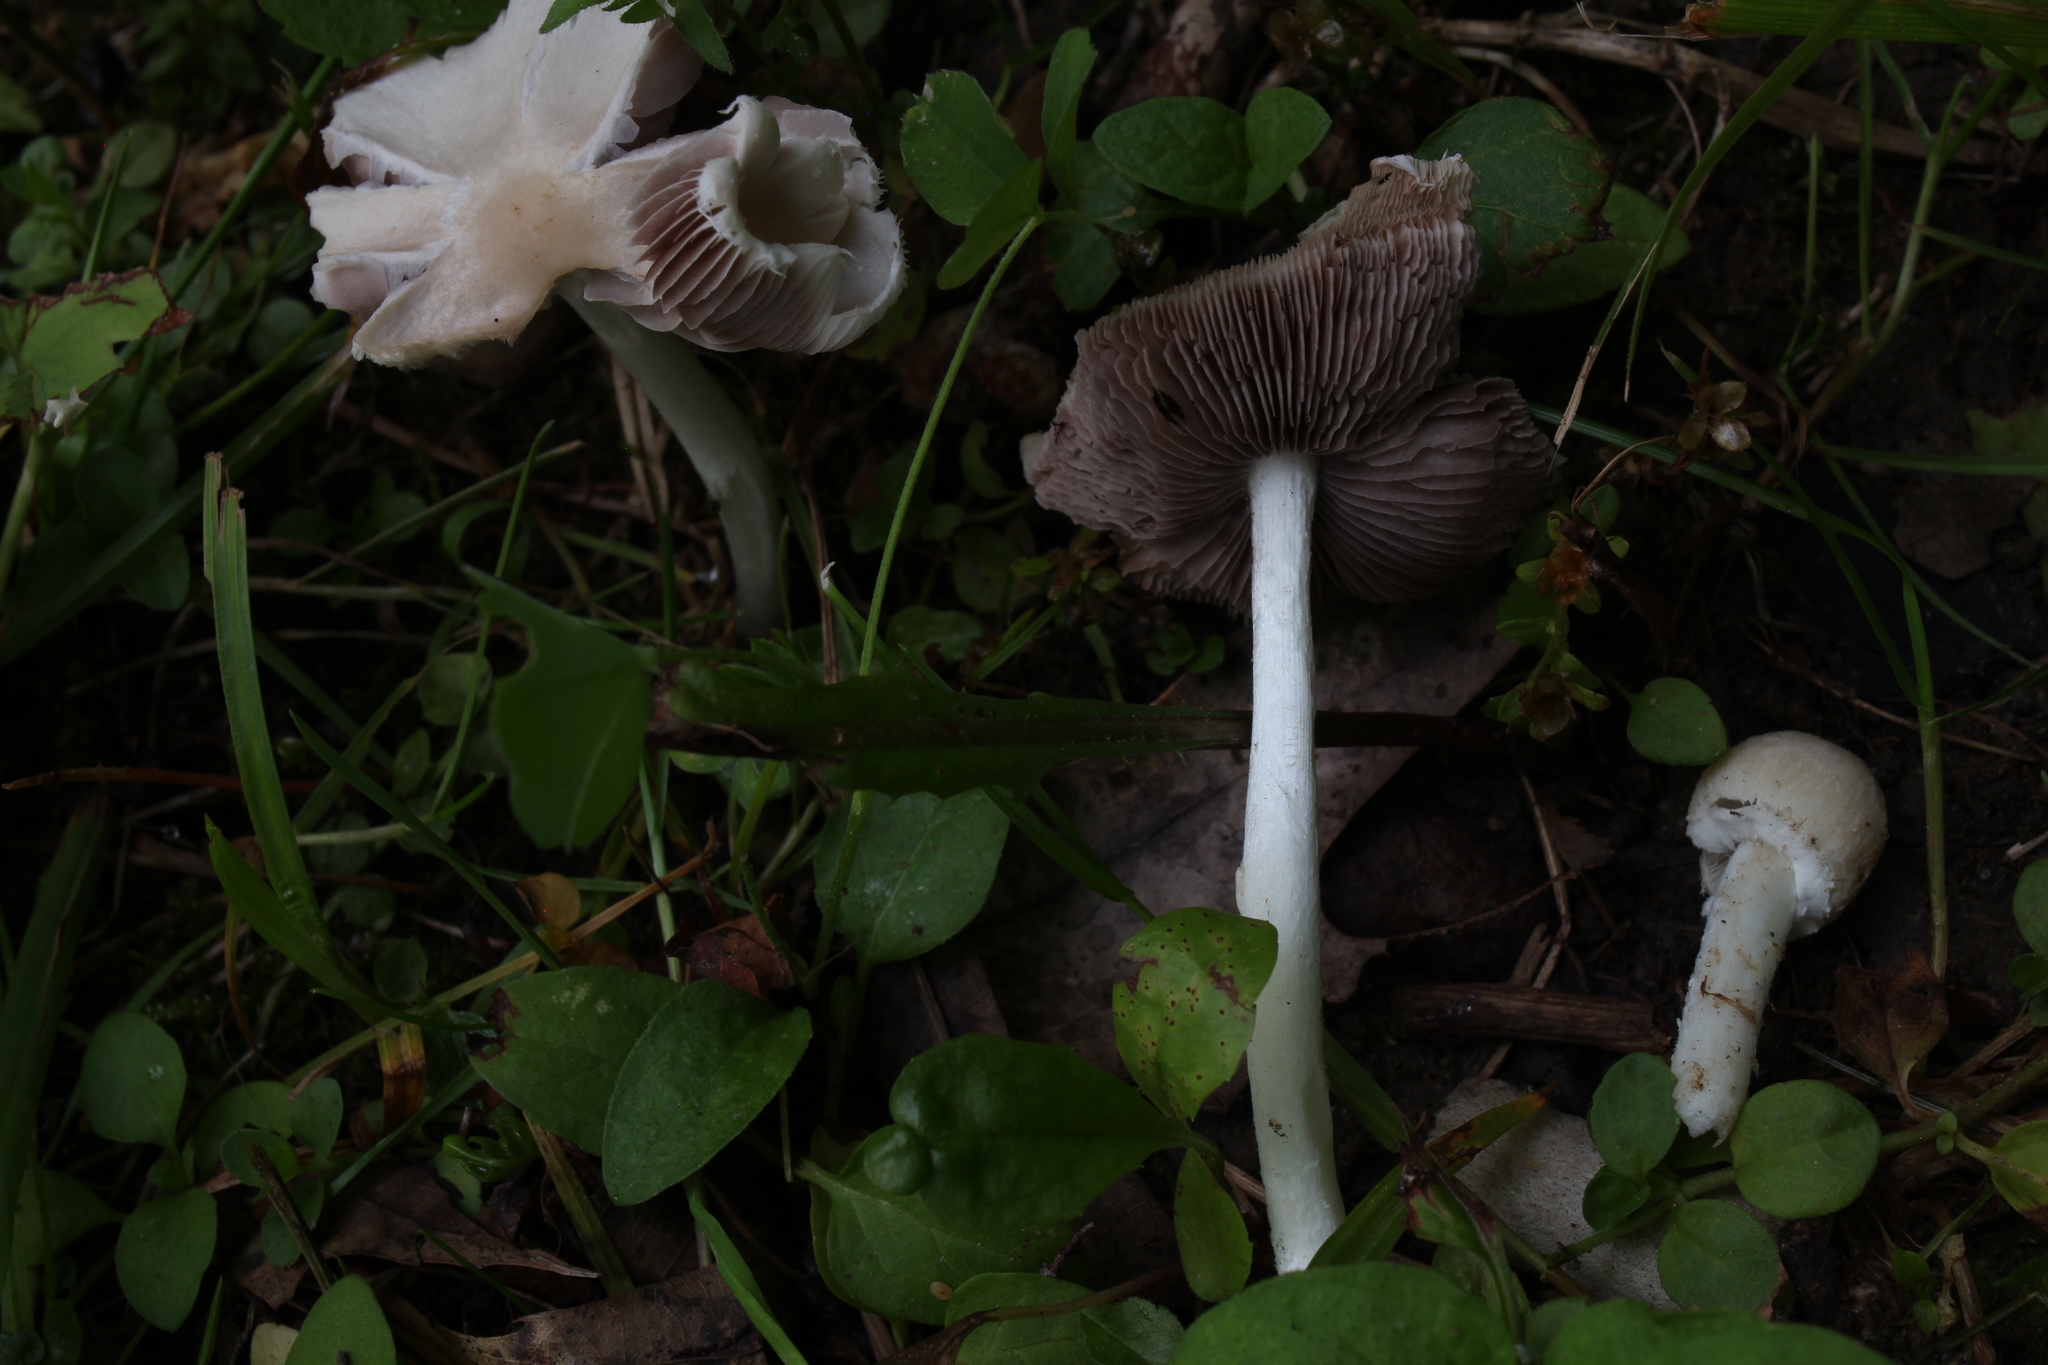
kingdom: Fungi
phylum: Basidiomycota
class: Agaricomycetes
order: Agaricales
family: Psathyrellaceae
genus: Candolleomyces
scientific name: Candolleomyces candolleanus
